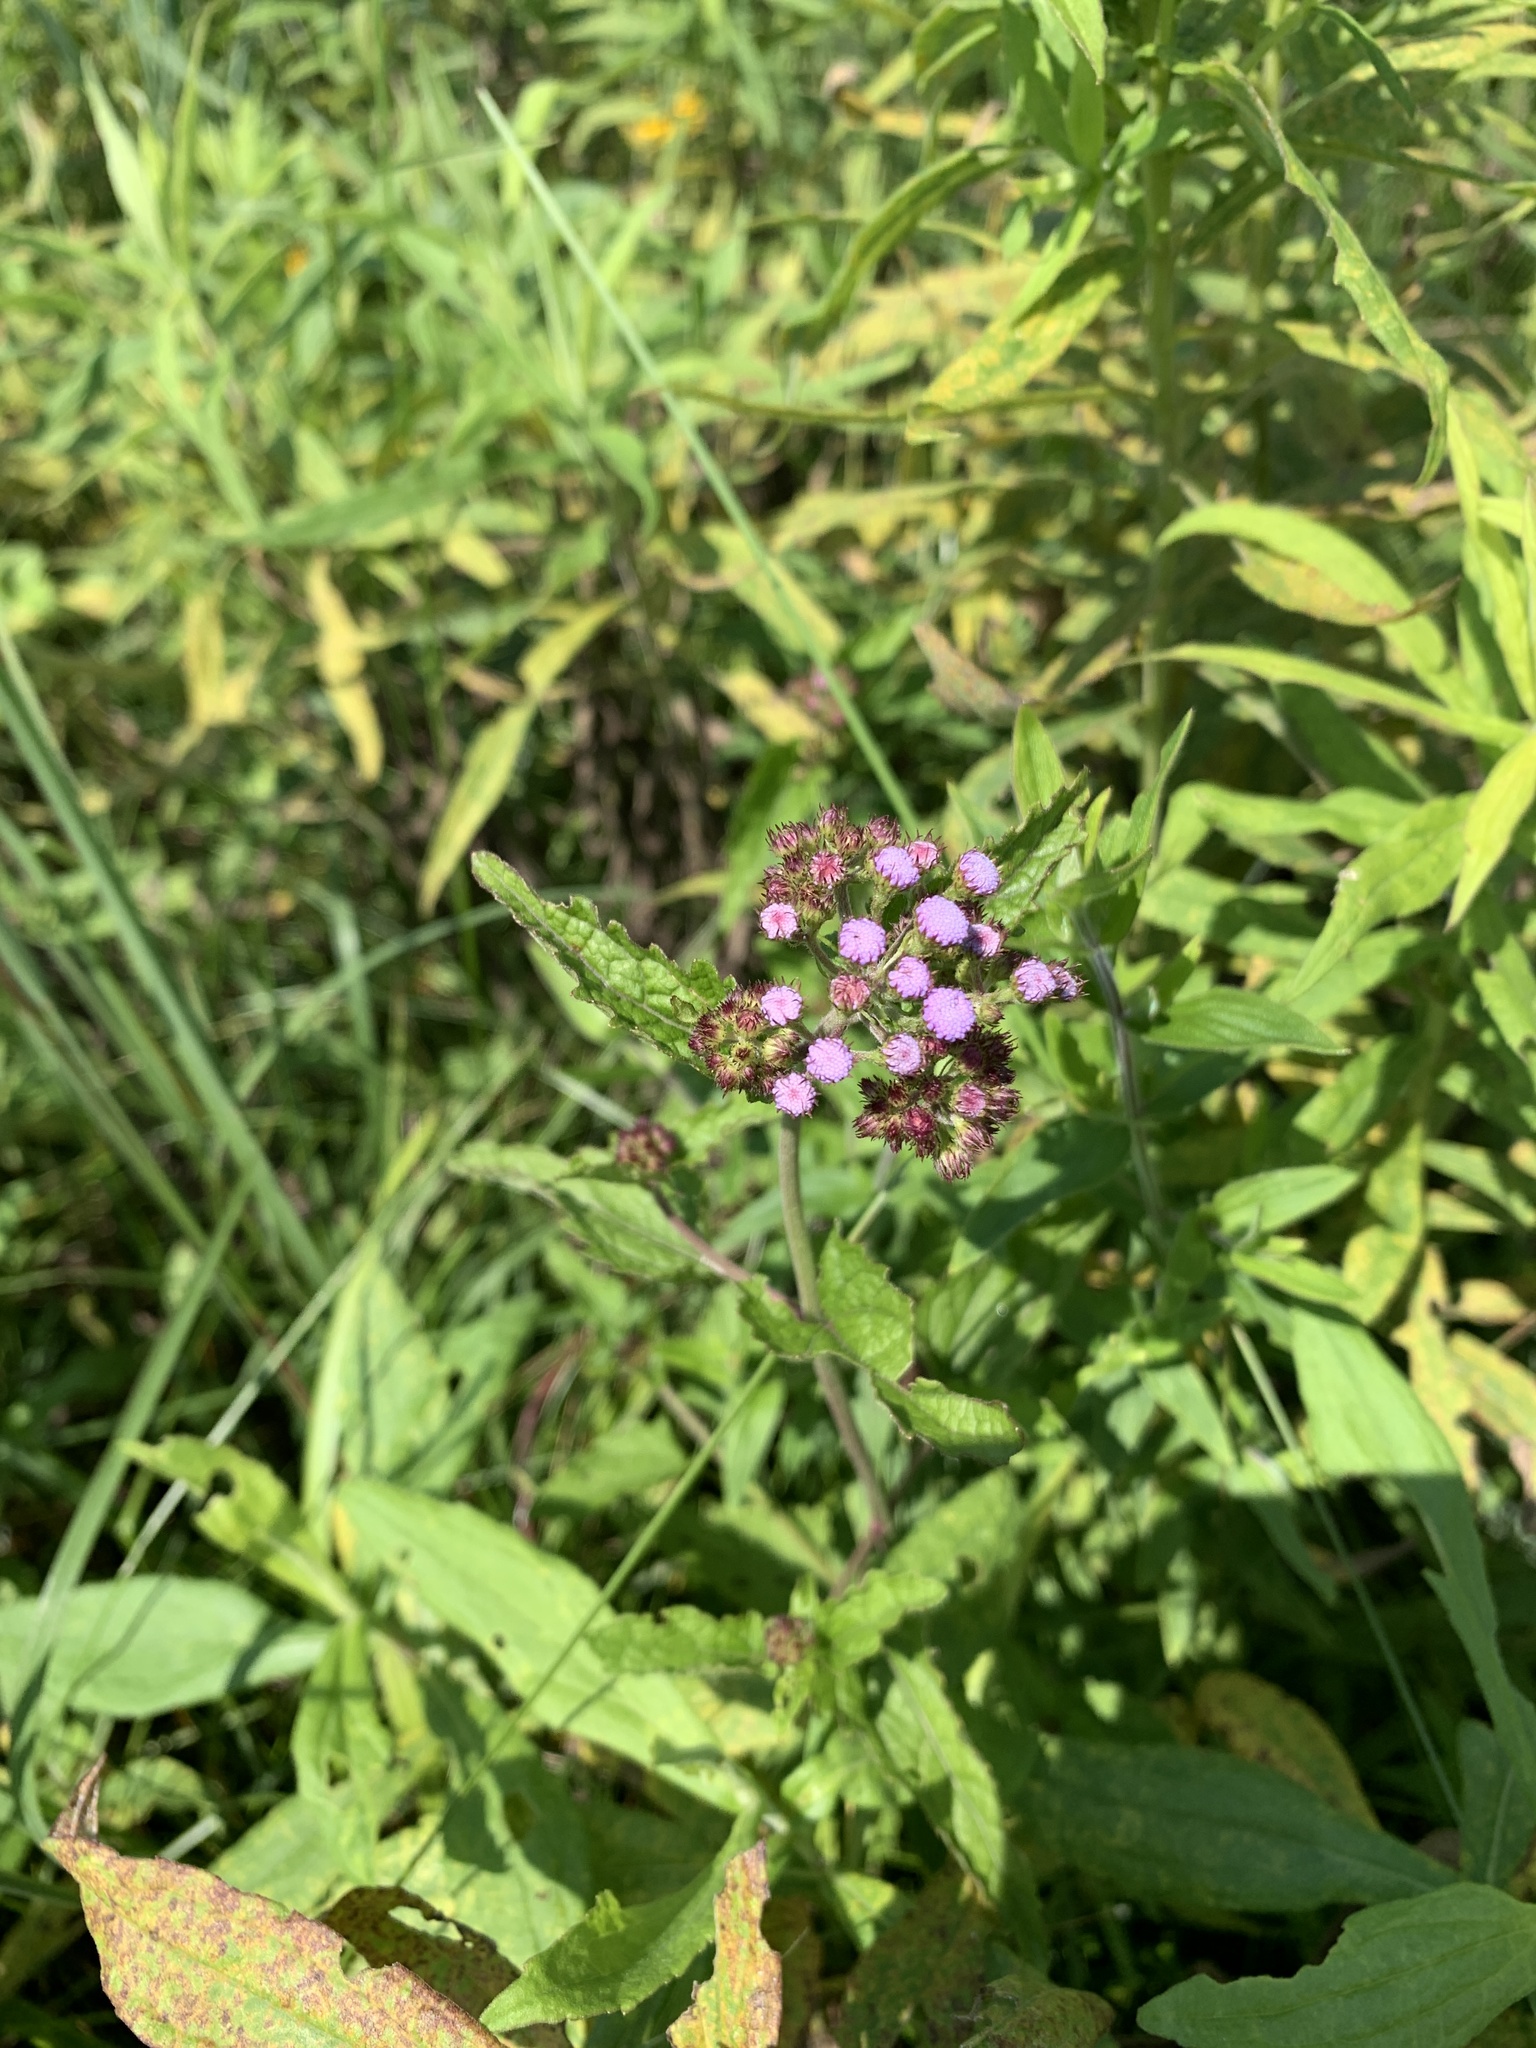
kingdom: Plantae
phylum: Tracheophyta
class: Magnoliopsida
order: Asterales
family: Asteraceae
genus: Conoclinium
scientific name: Conoclinium coelestinum
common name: Blue mistflower
